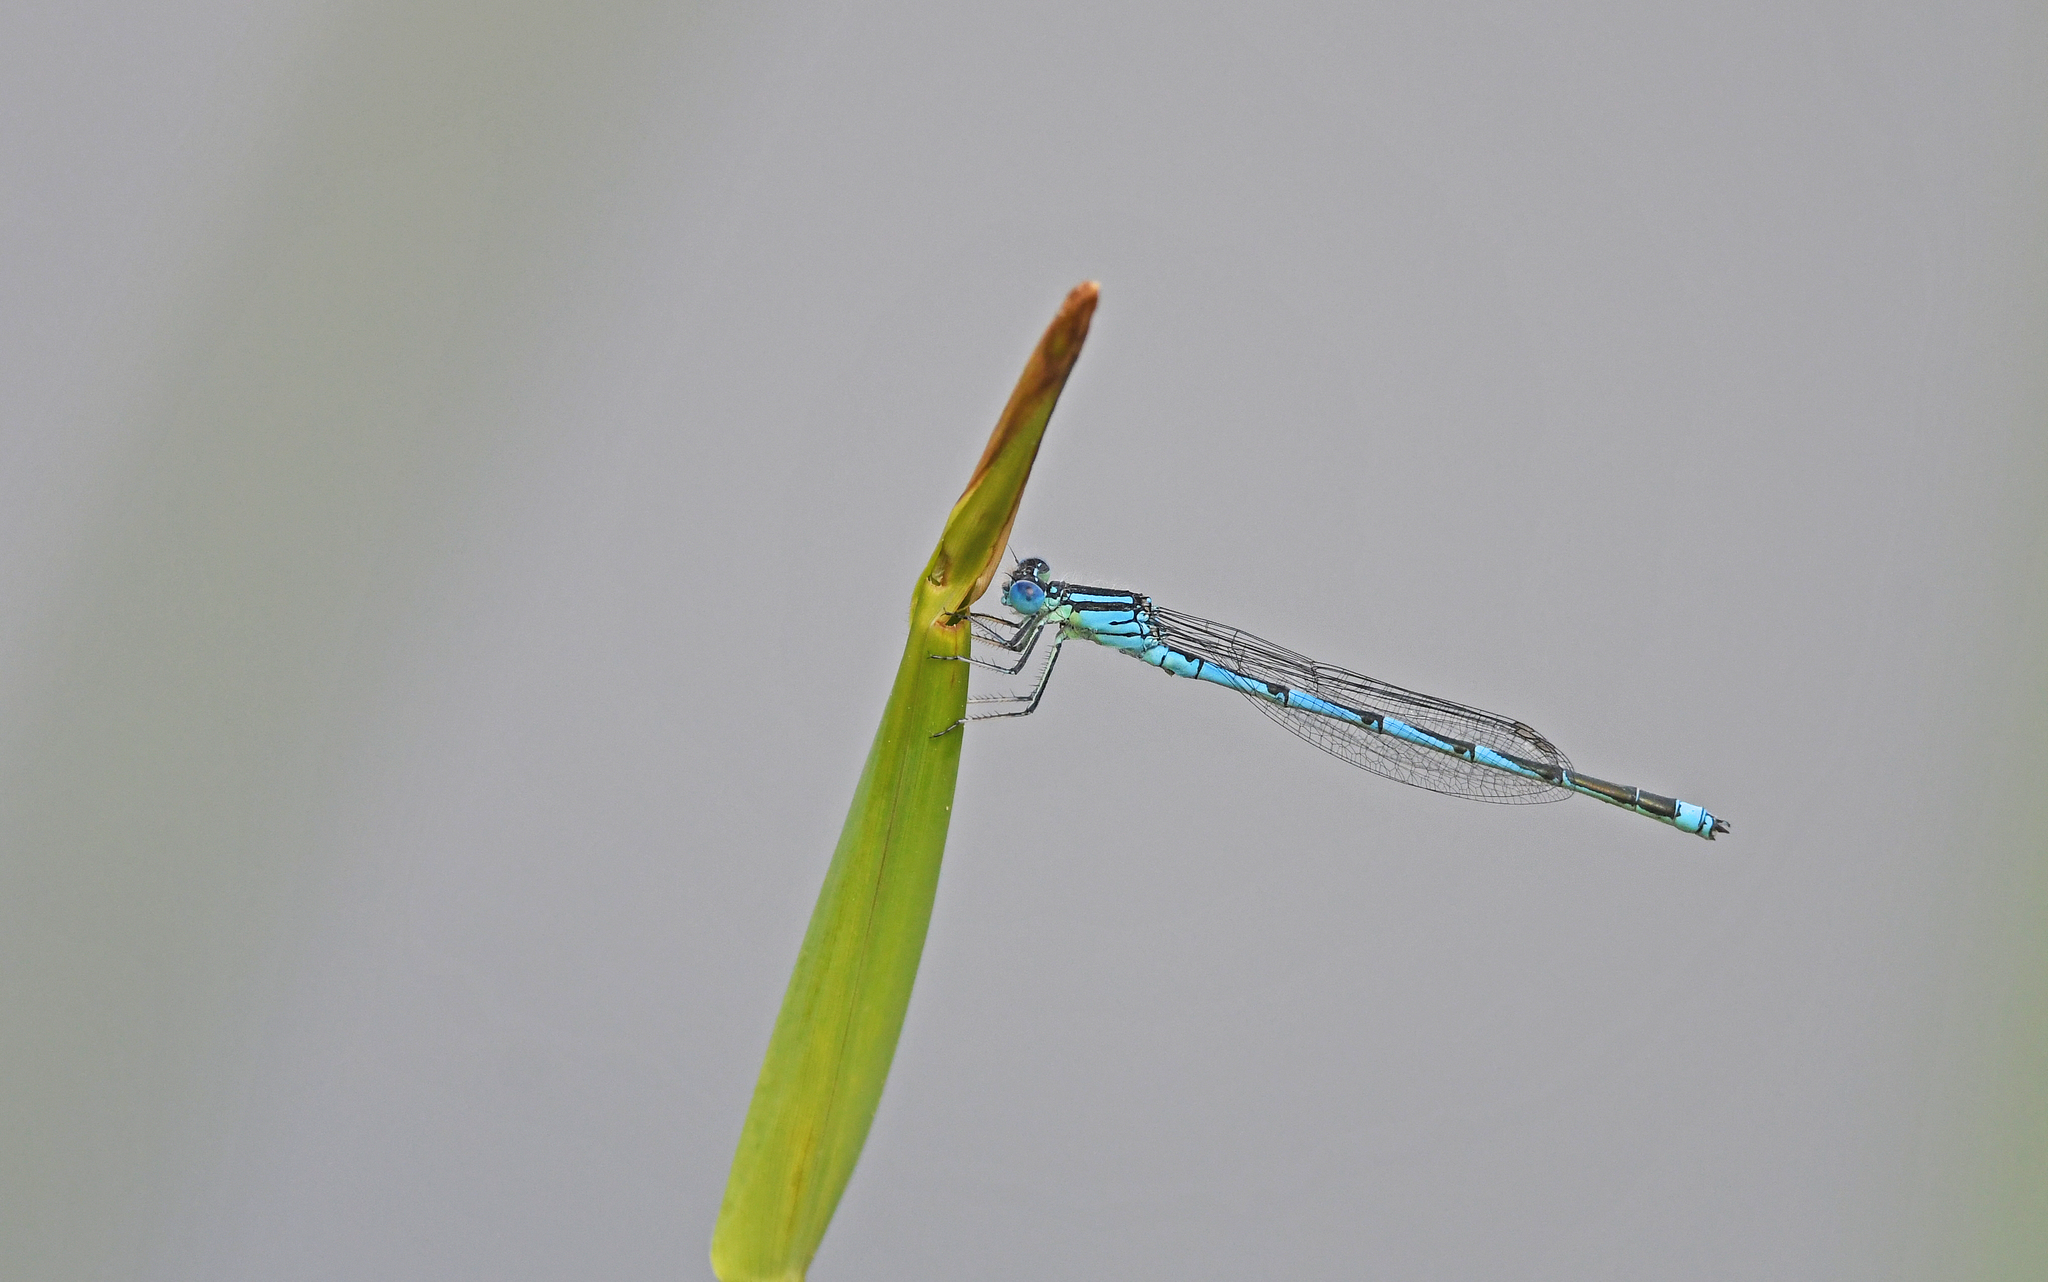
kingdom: Animalia
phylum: Arthropoda
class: Insecta
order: Odonata
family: Coenagrionidae
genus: Erythromma
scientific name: Erythromma lindenii
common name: Blue-eye
